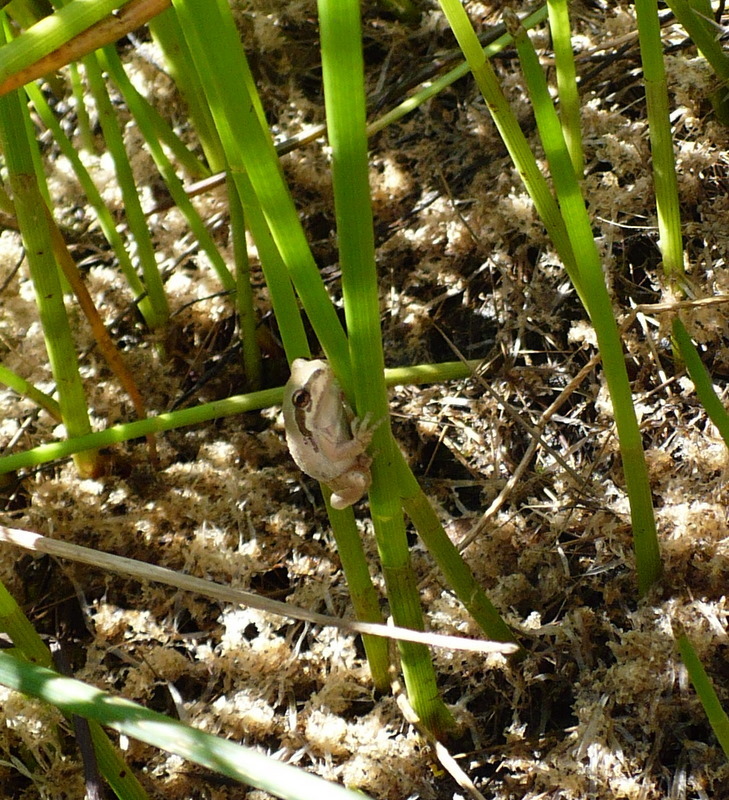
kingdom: Animalia
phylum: Chordata
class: Amphibia
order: Anura
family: Hylidae
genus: Pseudacris
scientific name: Pseudacris regilla
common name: Pacific chorus frog
